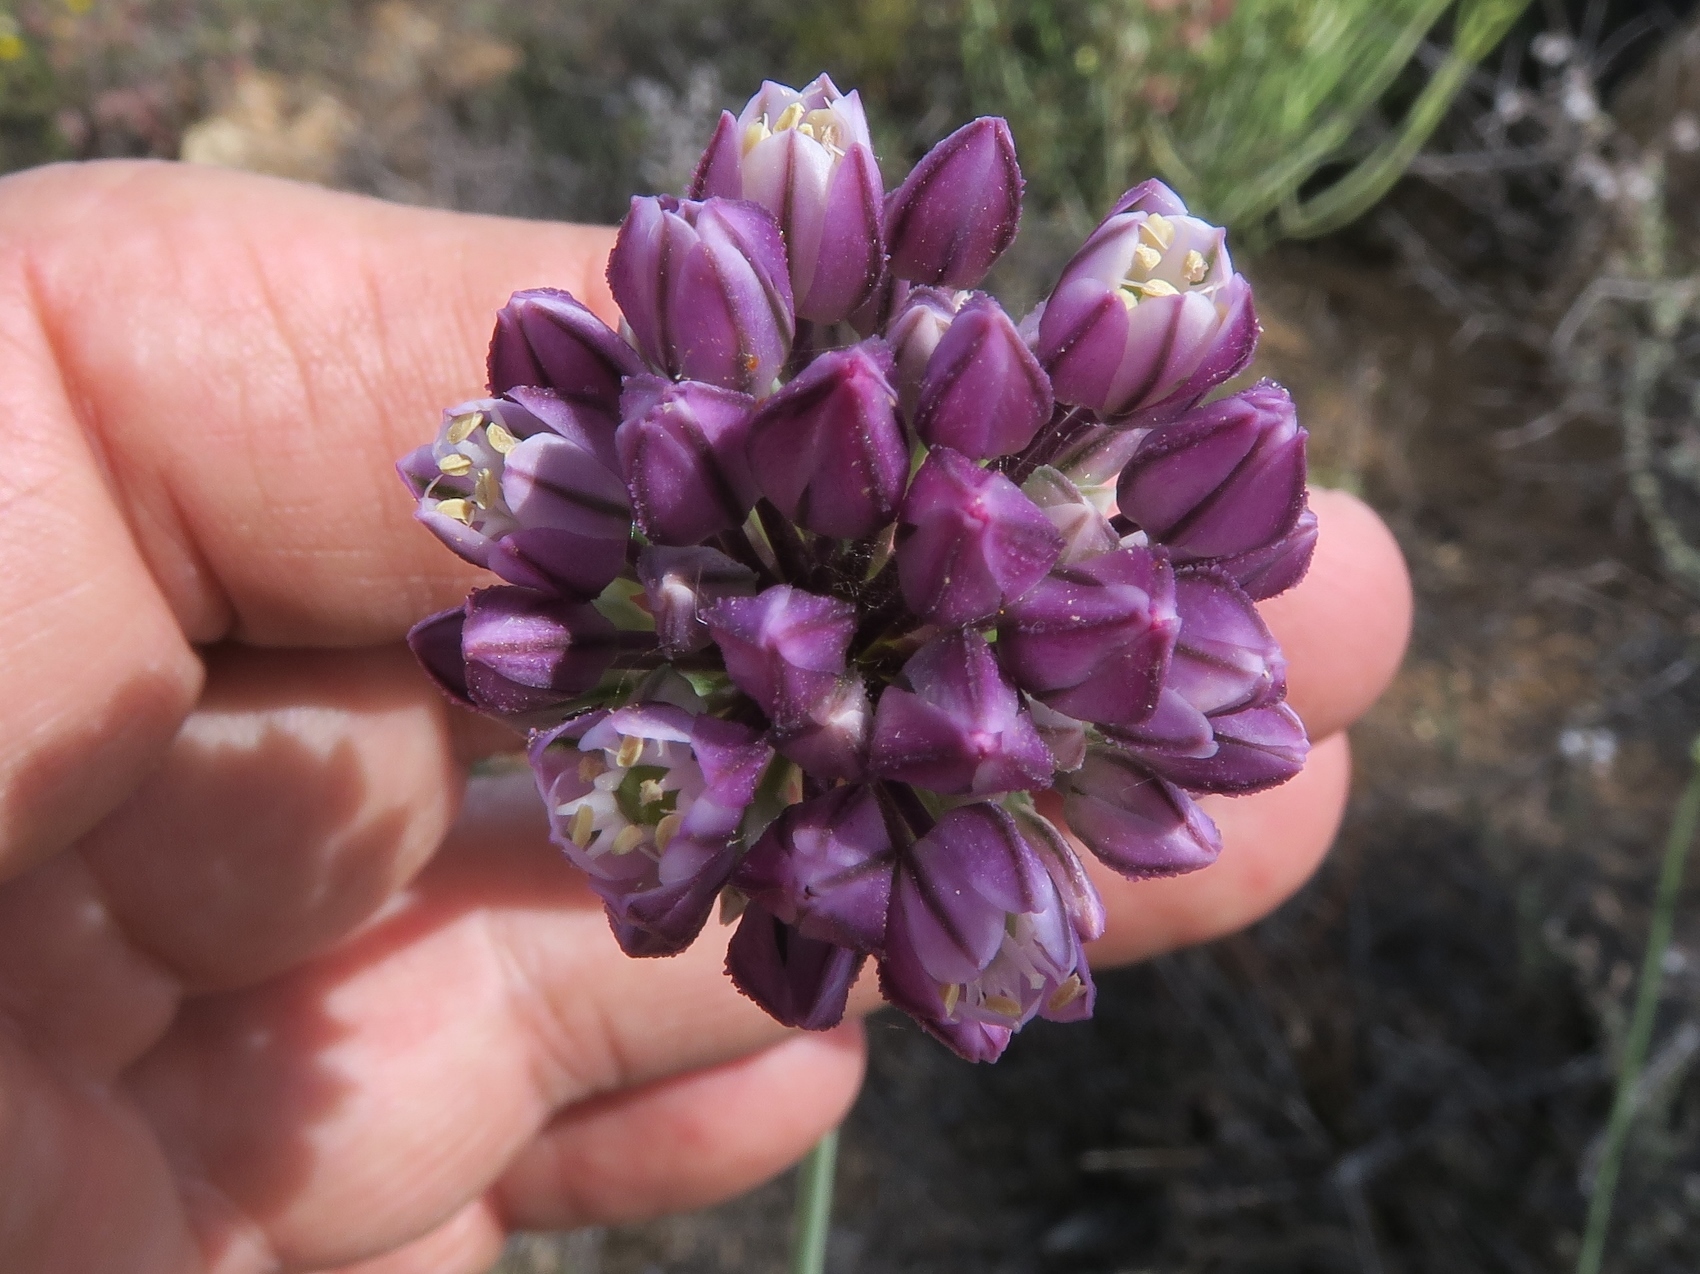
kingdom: Plantae
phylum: Tracheophyta
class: Liliopsida
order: Asparagales
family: Amaryllidaceae
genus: Allium
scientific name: Allium synnotii
